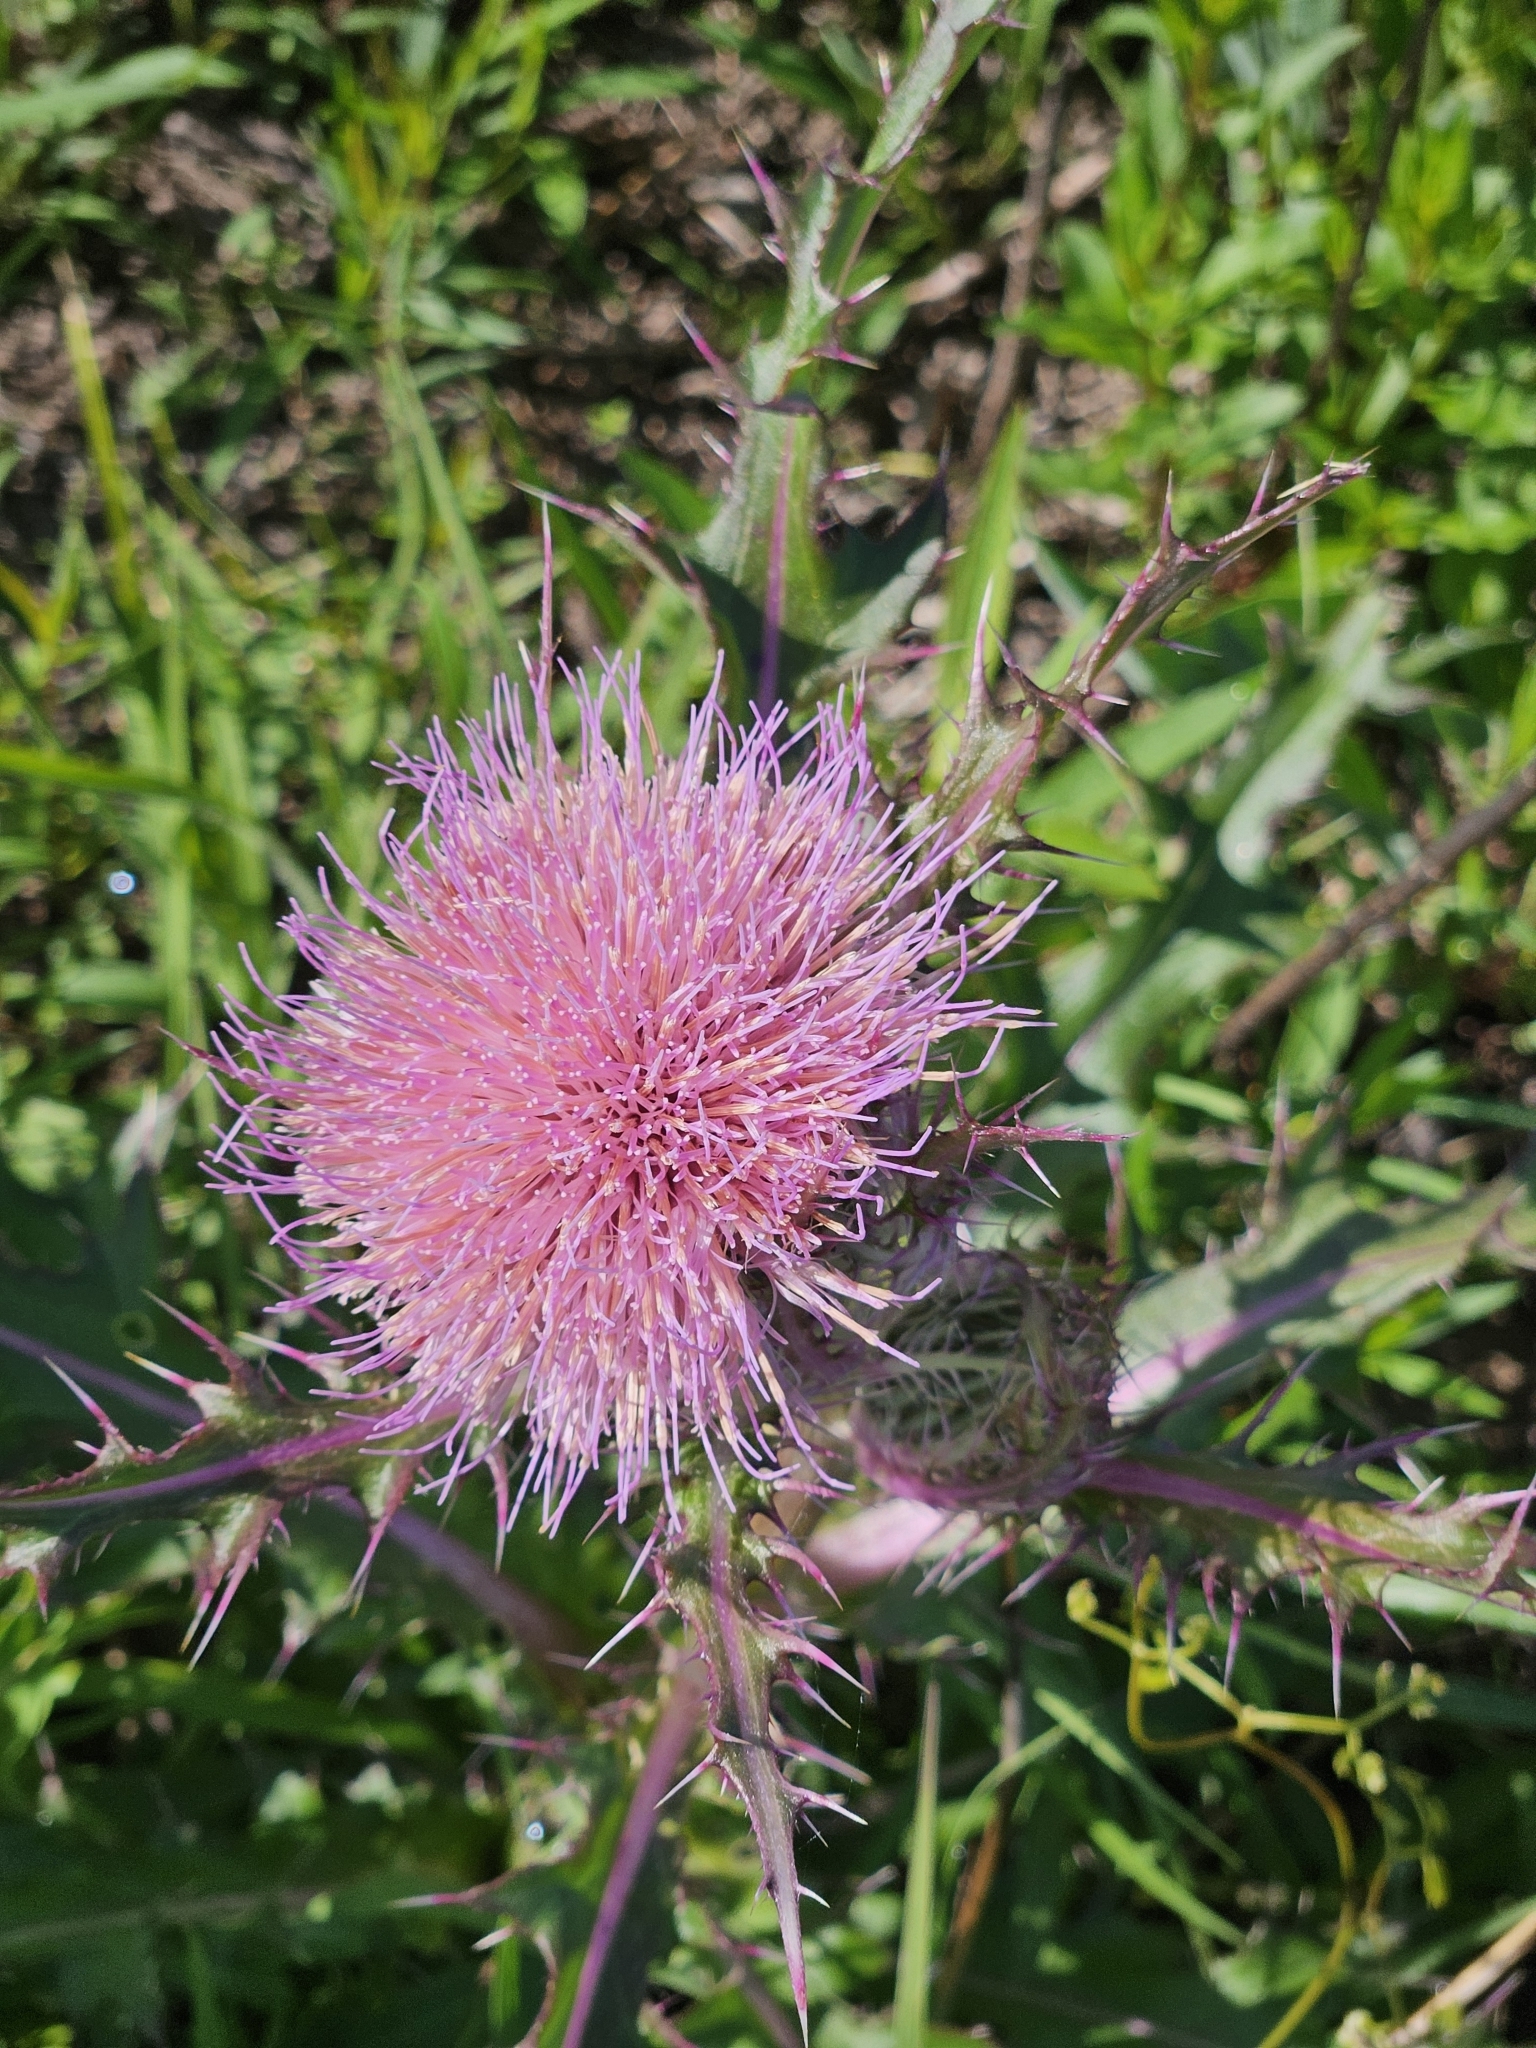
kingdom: Plantae
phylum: Tracheophyta
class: Magnoliopsida
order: Asterales
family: Asteraceae
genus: Cirsium
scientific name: Cirsium horridulum
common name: Bristly thistle
